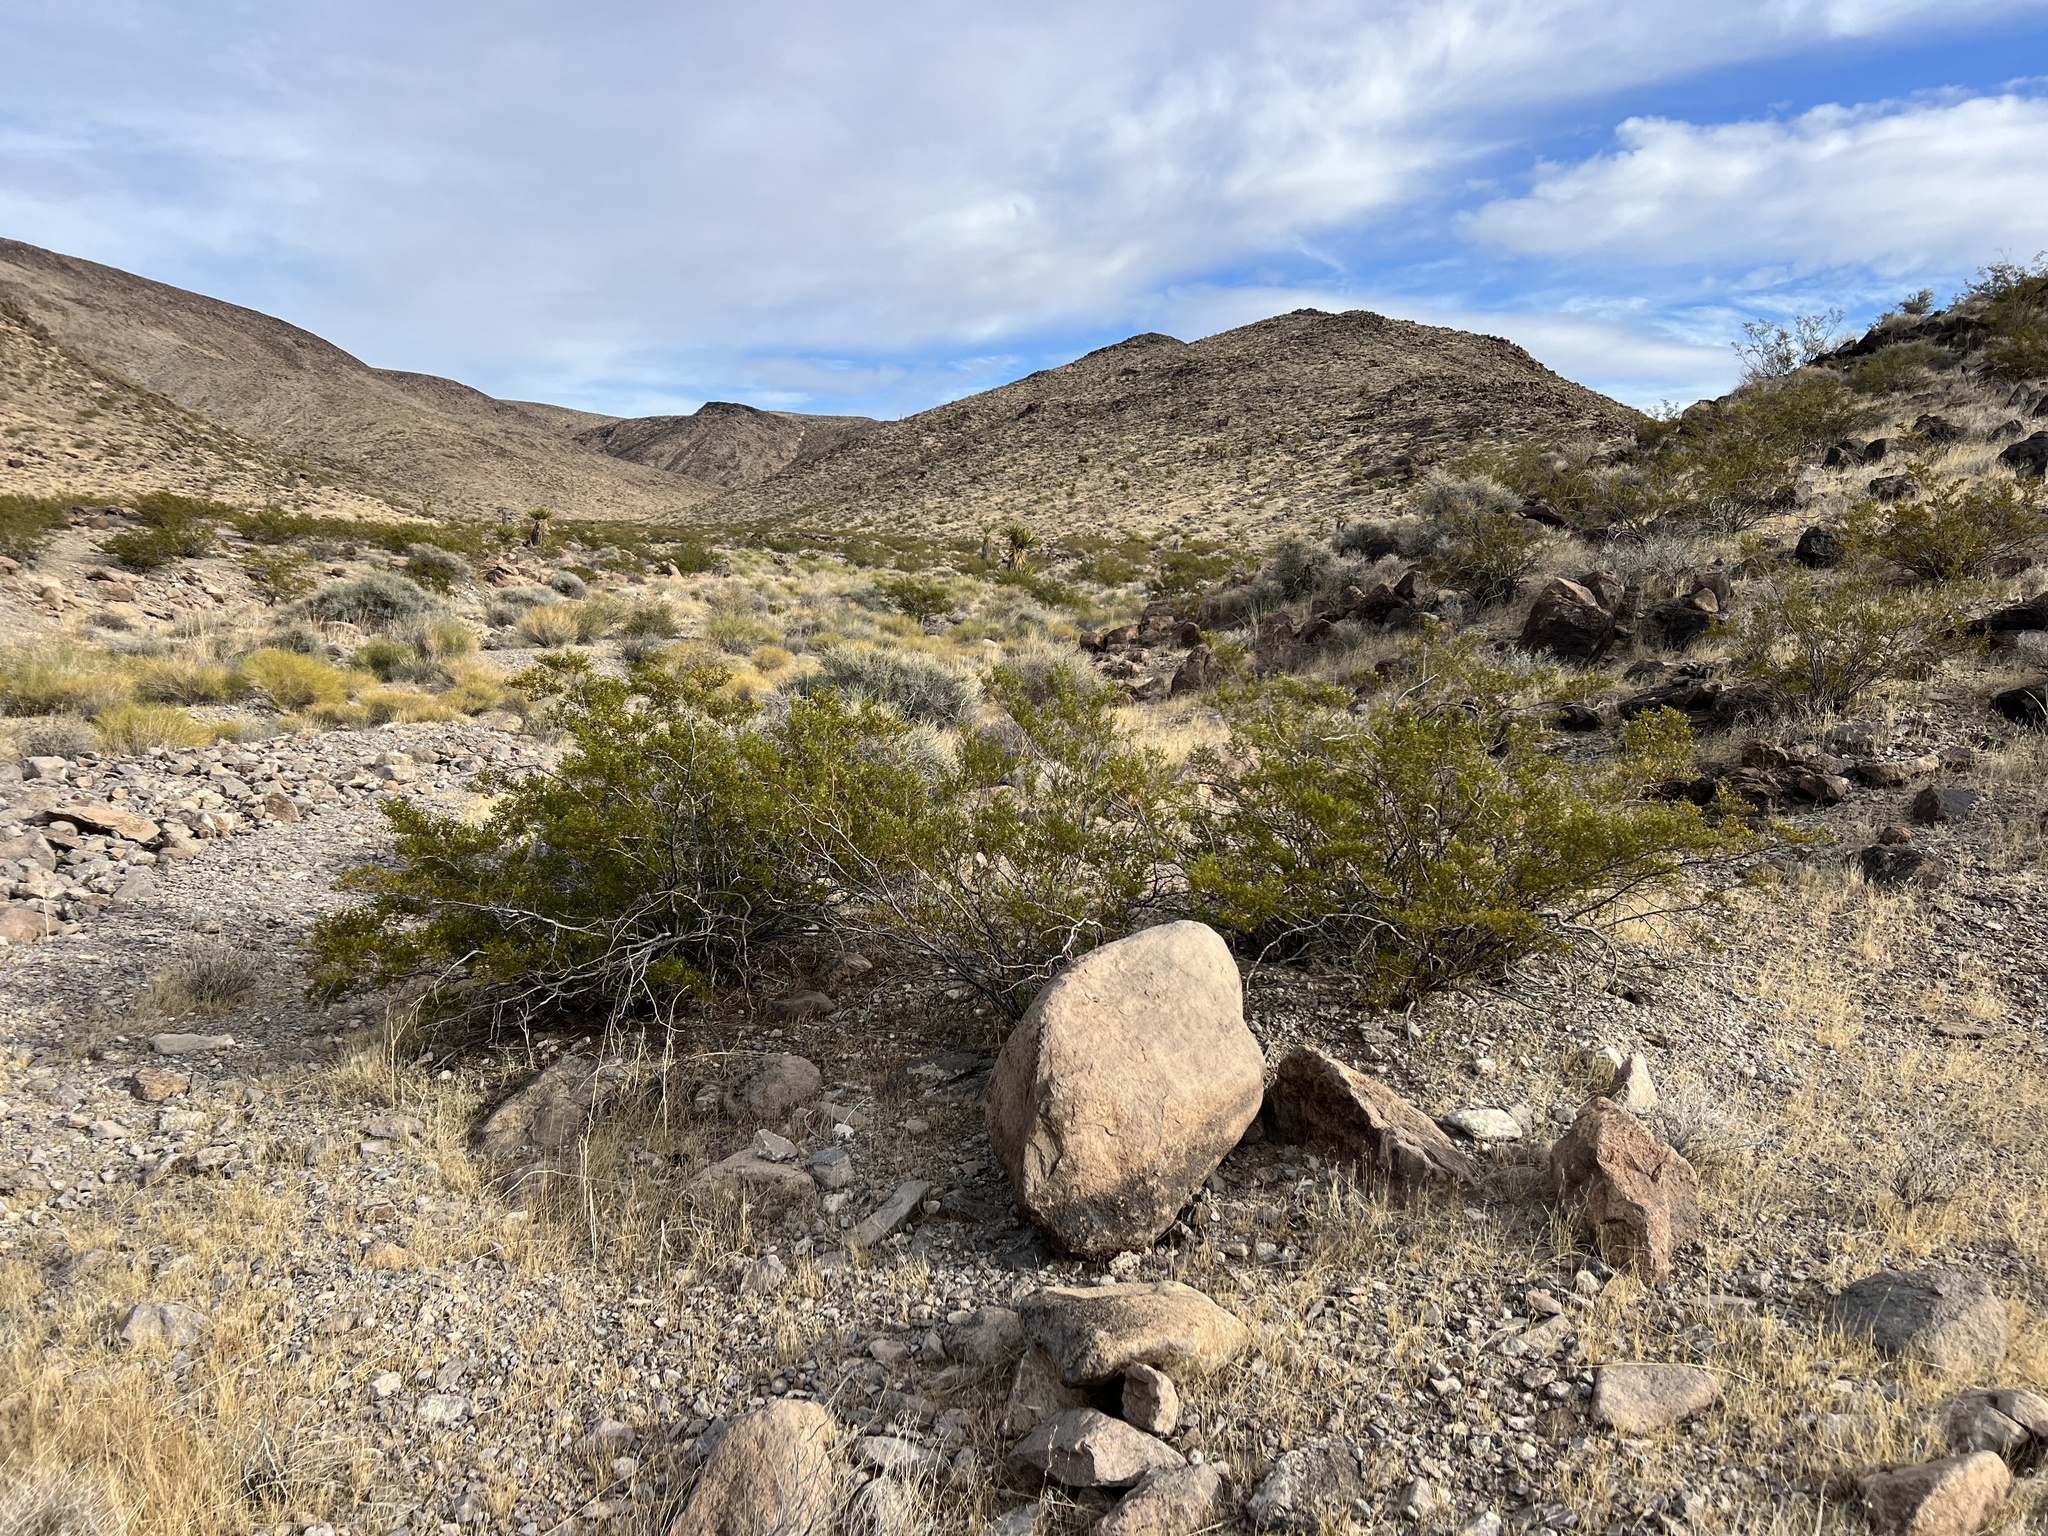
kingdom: Plantae
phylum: Tracheophyta
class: Magnoliopsida
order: Zygophyllales
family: Zygophyllaceae
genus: Larrea
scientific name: Larrea tridentata
